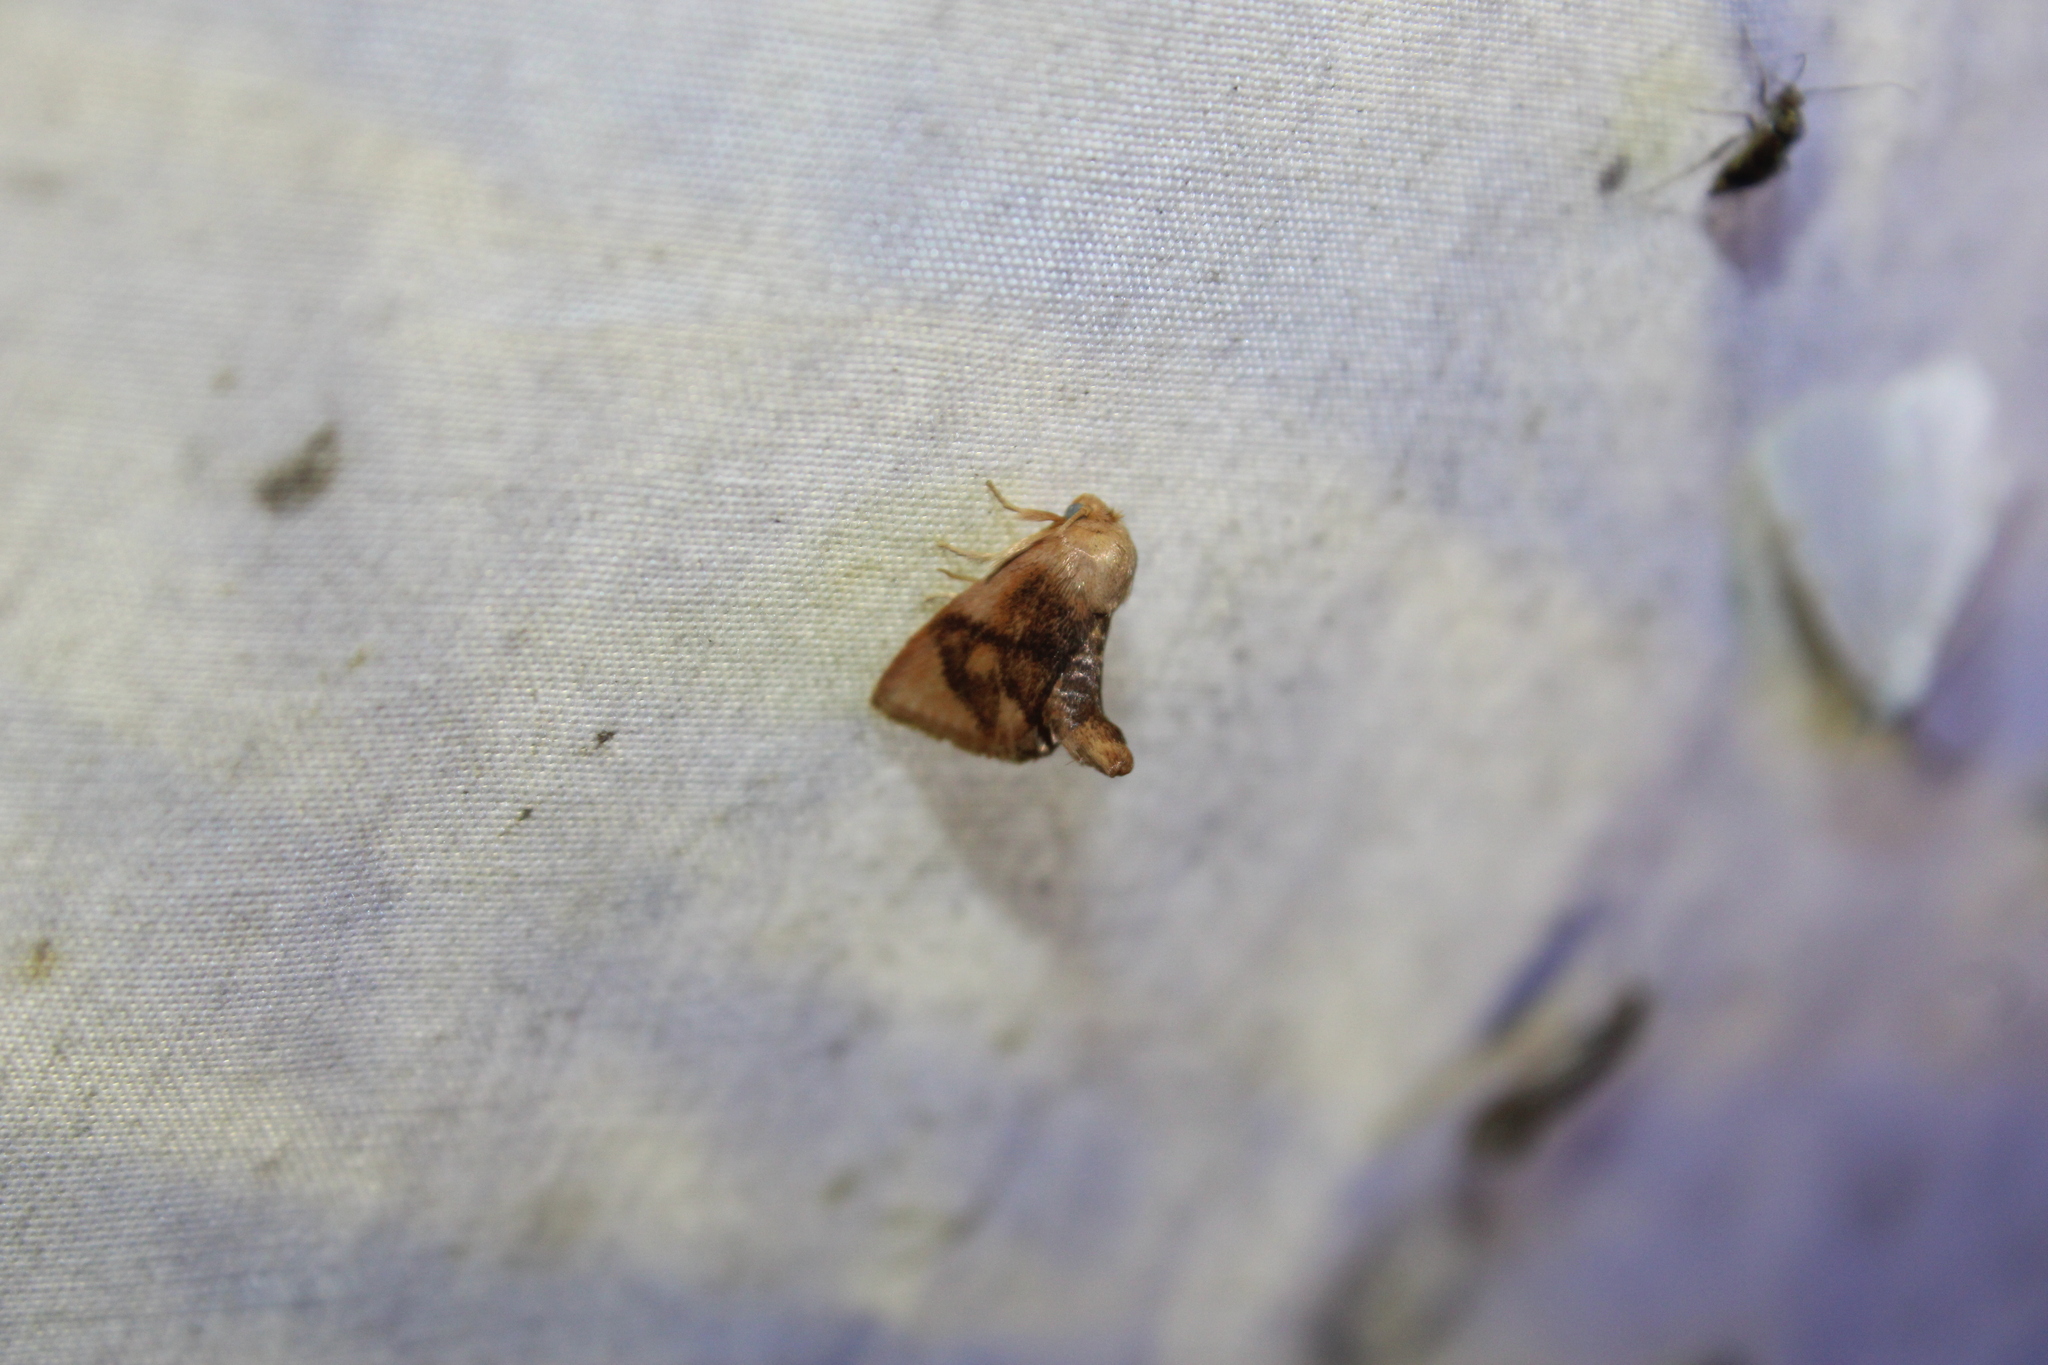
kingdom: Animalia
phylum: Arthropoda
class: Insecta
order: Lepidoptera
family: Limacodidae
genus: Tortricidia
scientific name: Tortricidia flexuosa
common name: Abbreviated button slug moth
